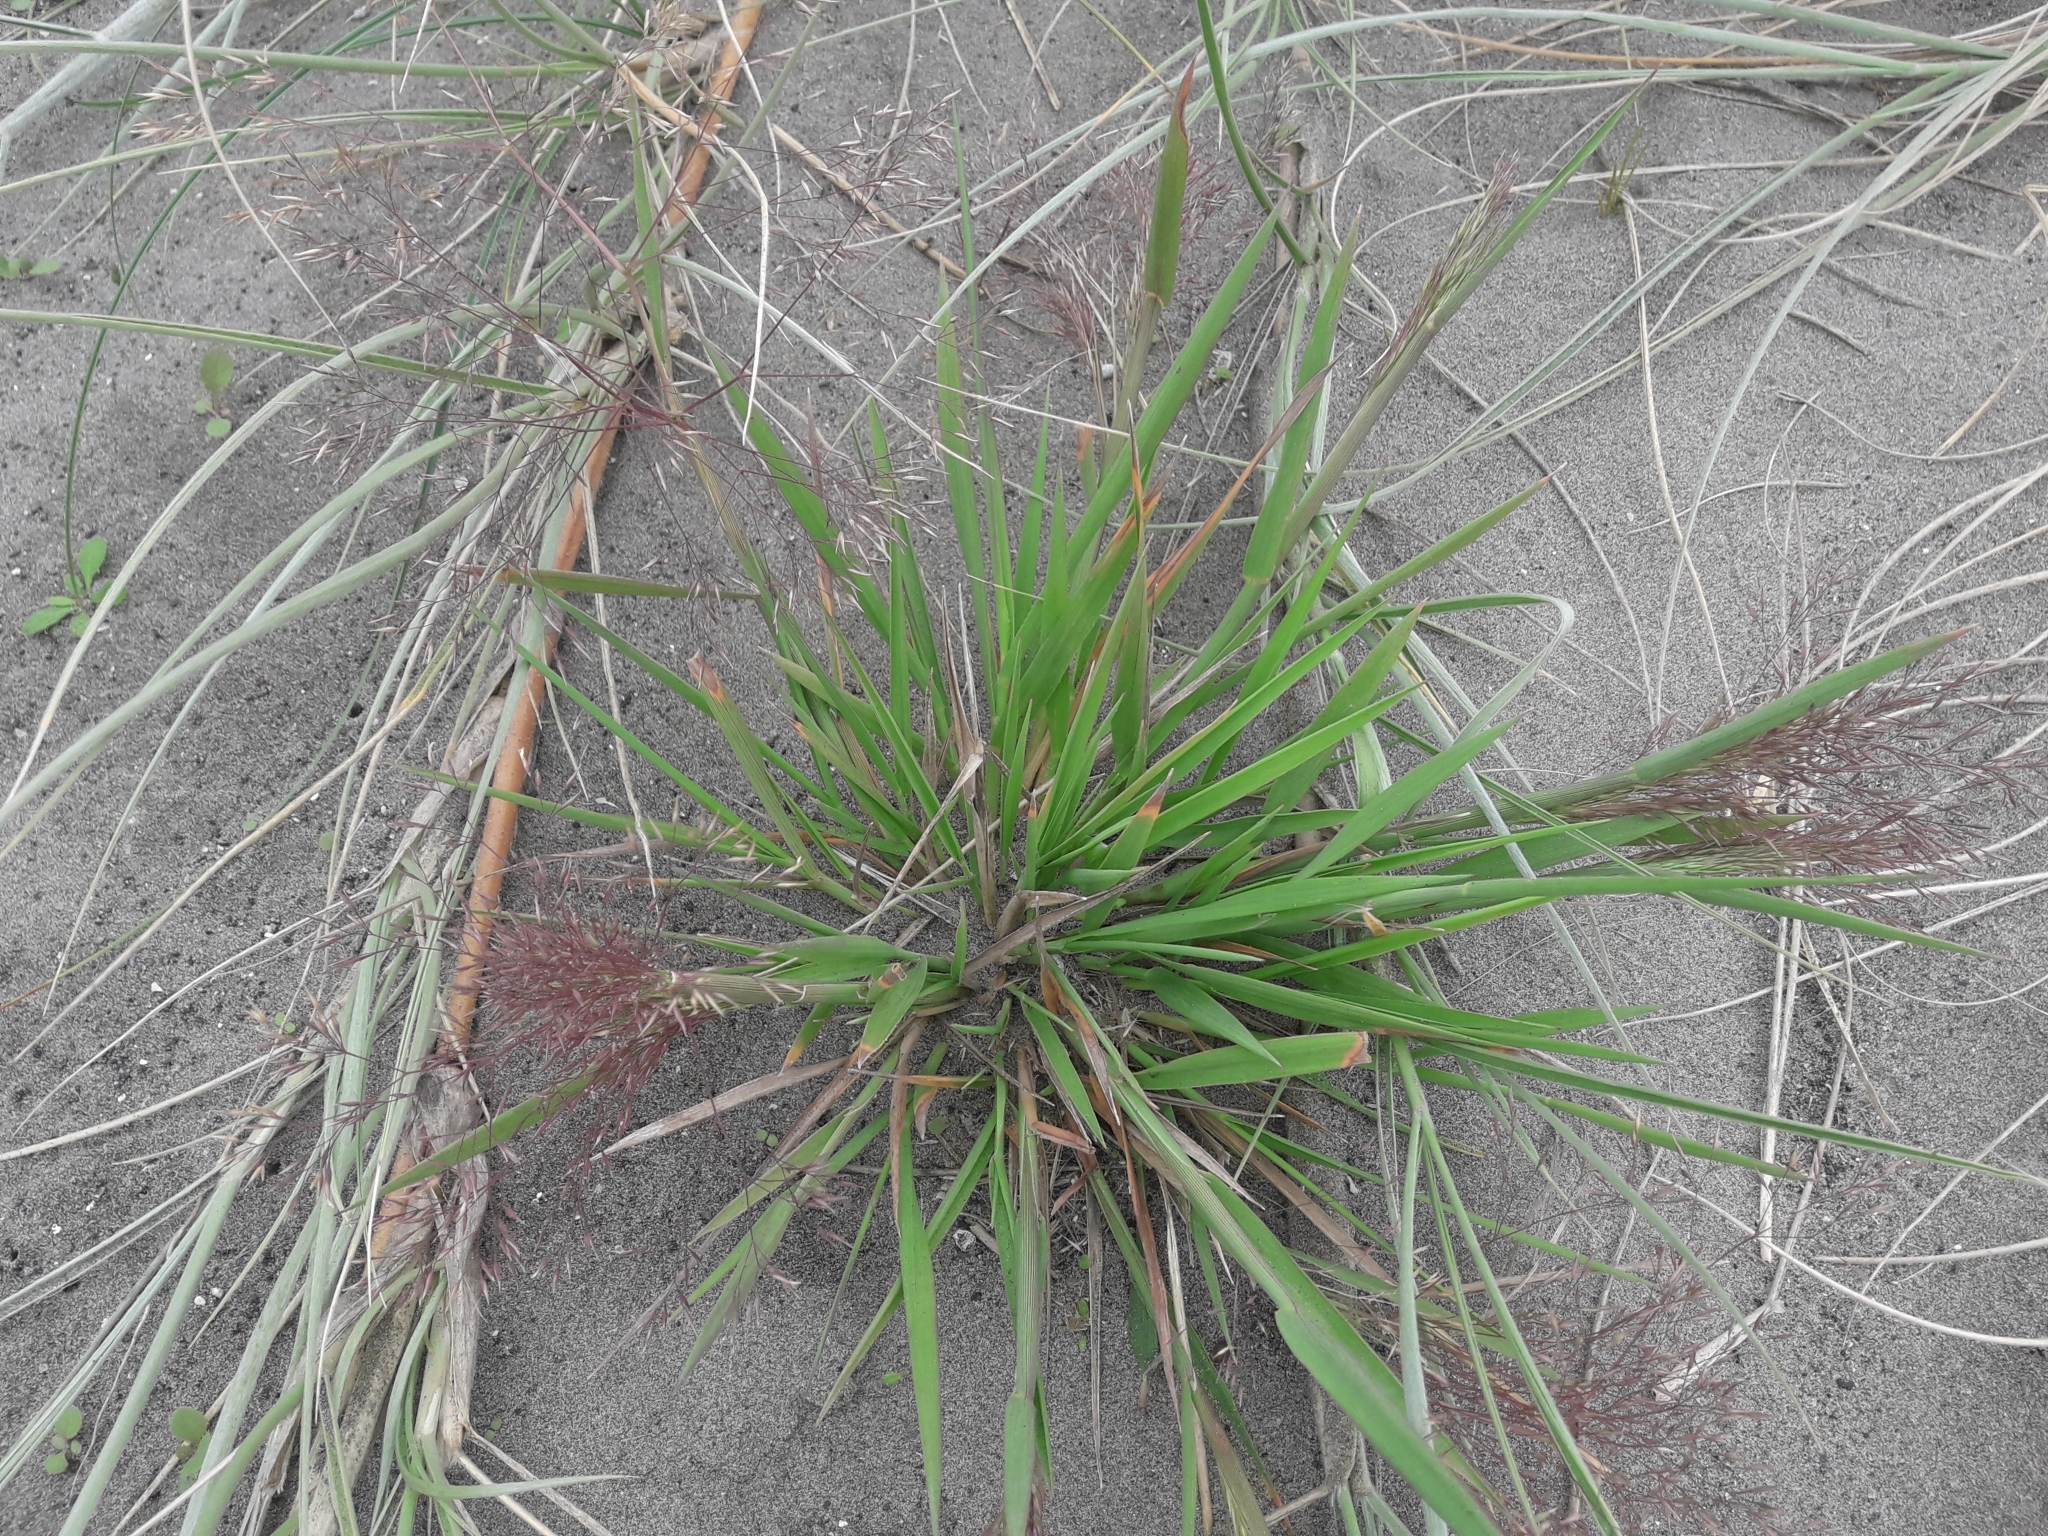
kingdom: Plantae
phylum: Tracheophyta
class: Liliopsida
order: Poales
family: Poaceae
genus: Lachnagrostis
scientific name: Lachnagrostis billardierei
